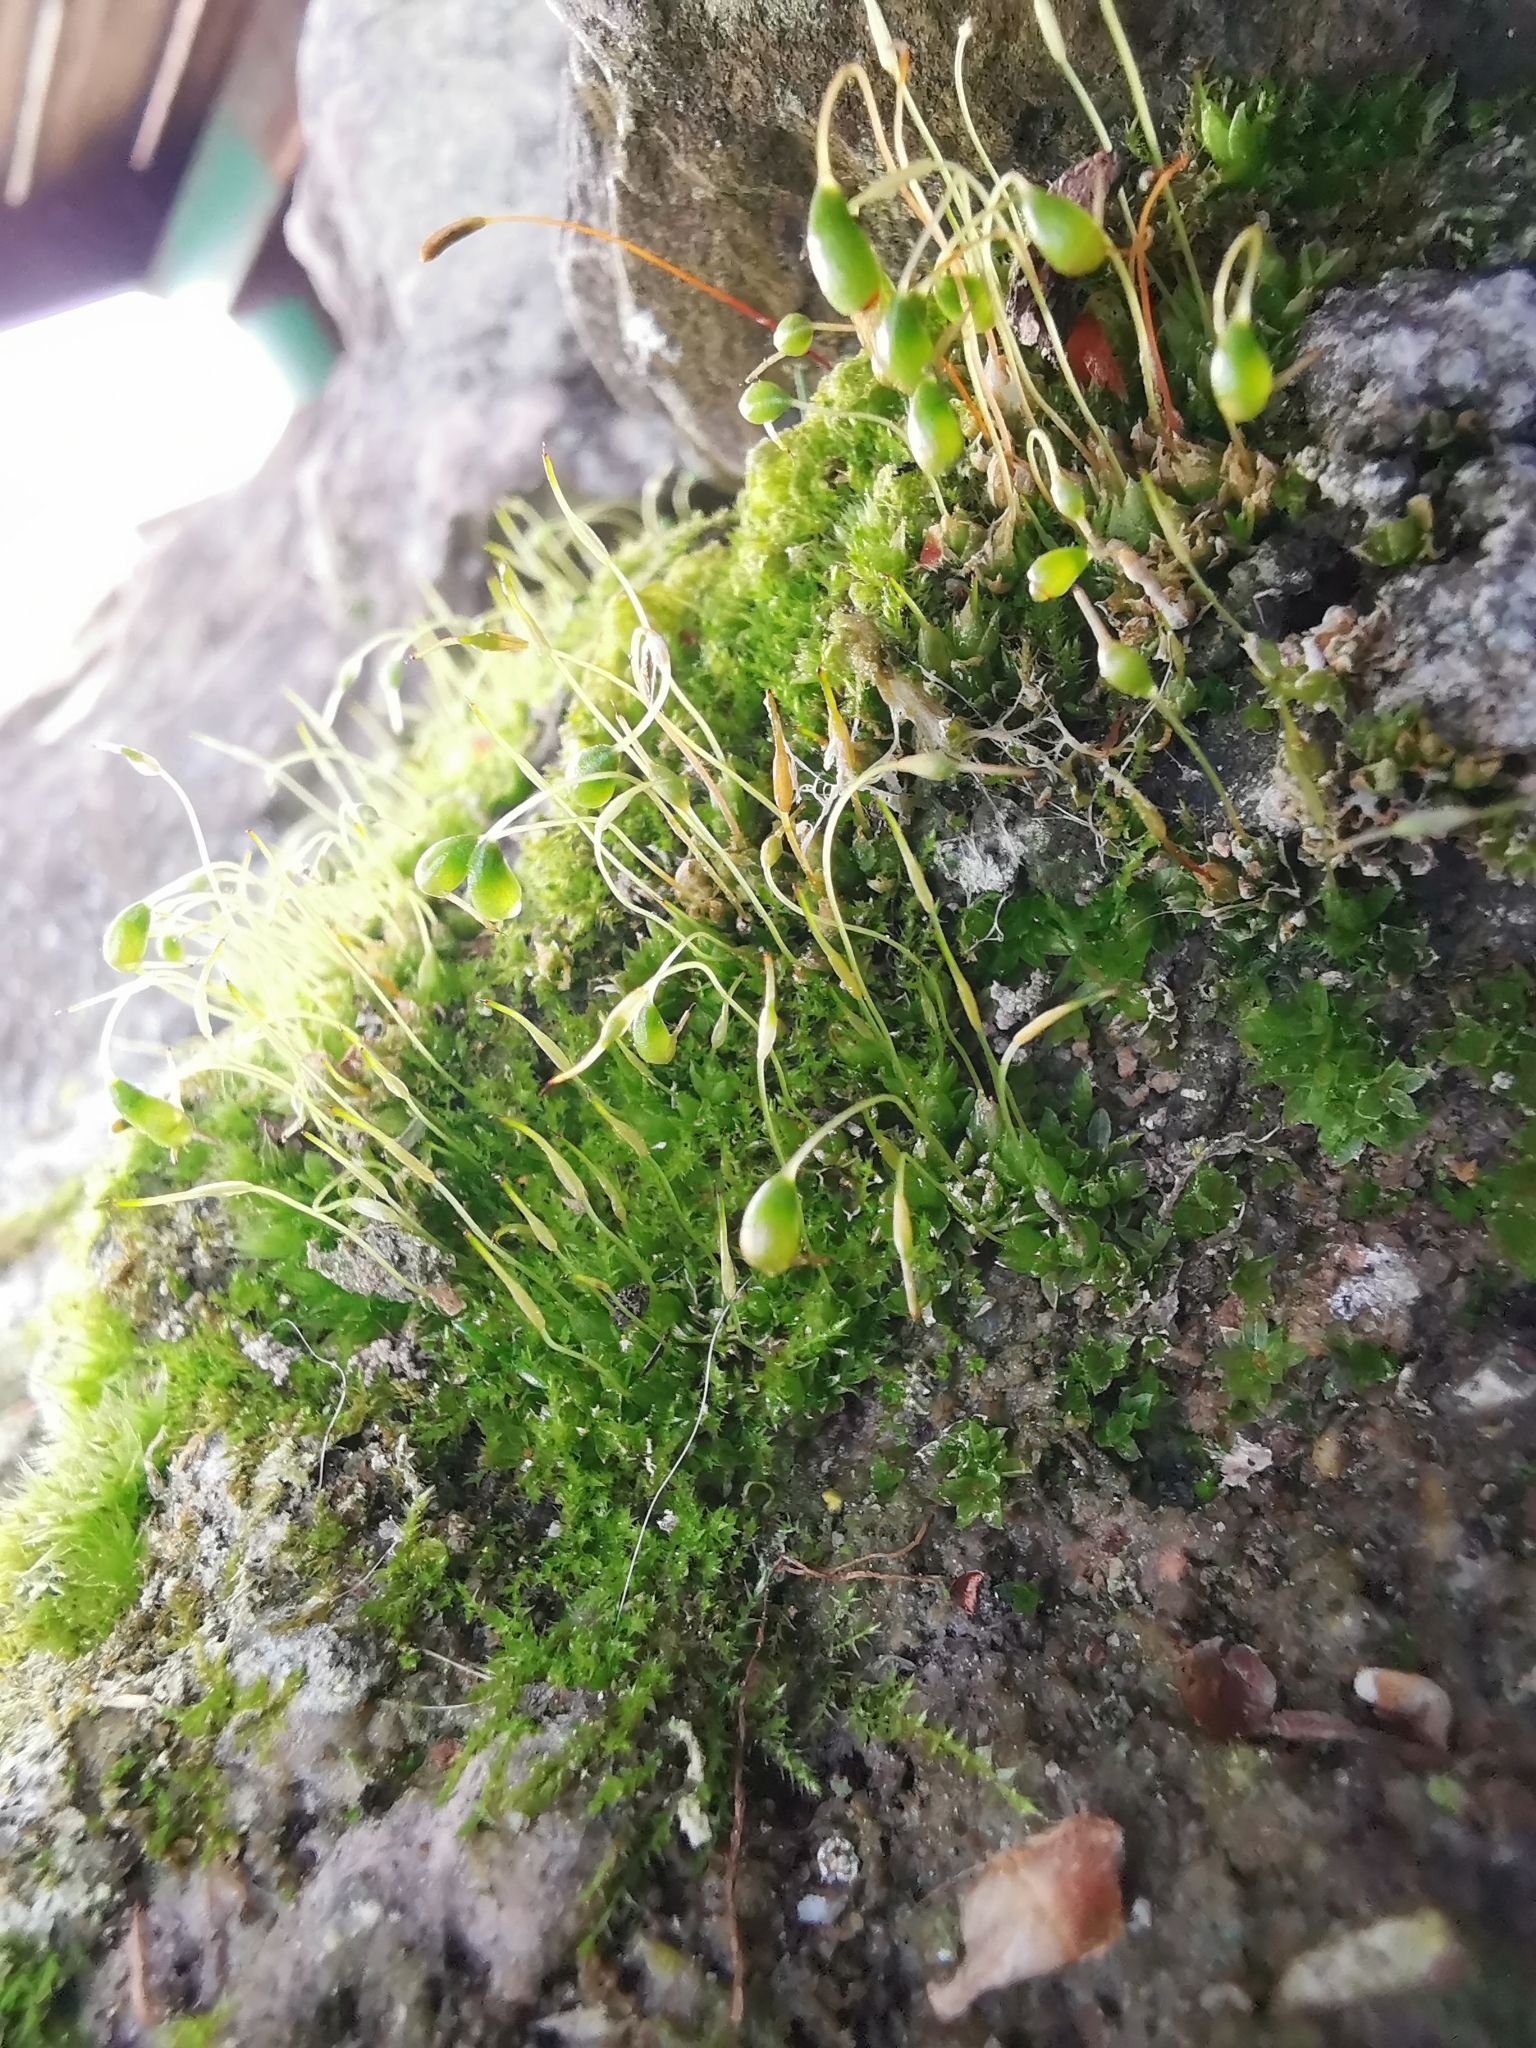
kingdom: Plantae
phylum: Bryophyta
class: Bryopsida
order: Funariales
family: Funariaceae
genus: Funaria
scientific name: Funaria hygrometrica
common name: Common cord moss
